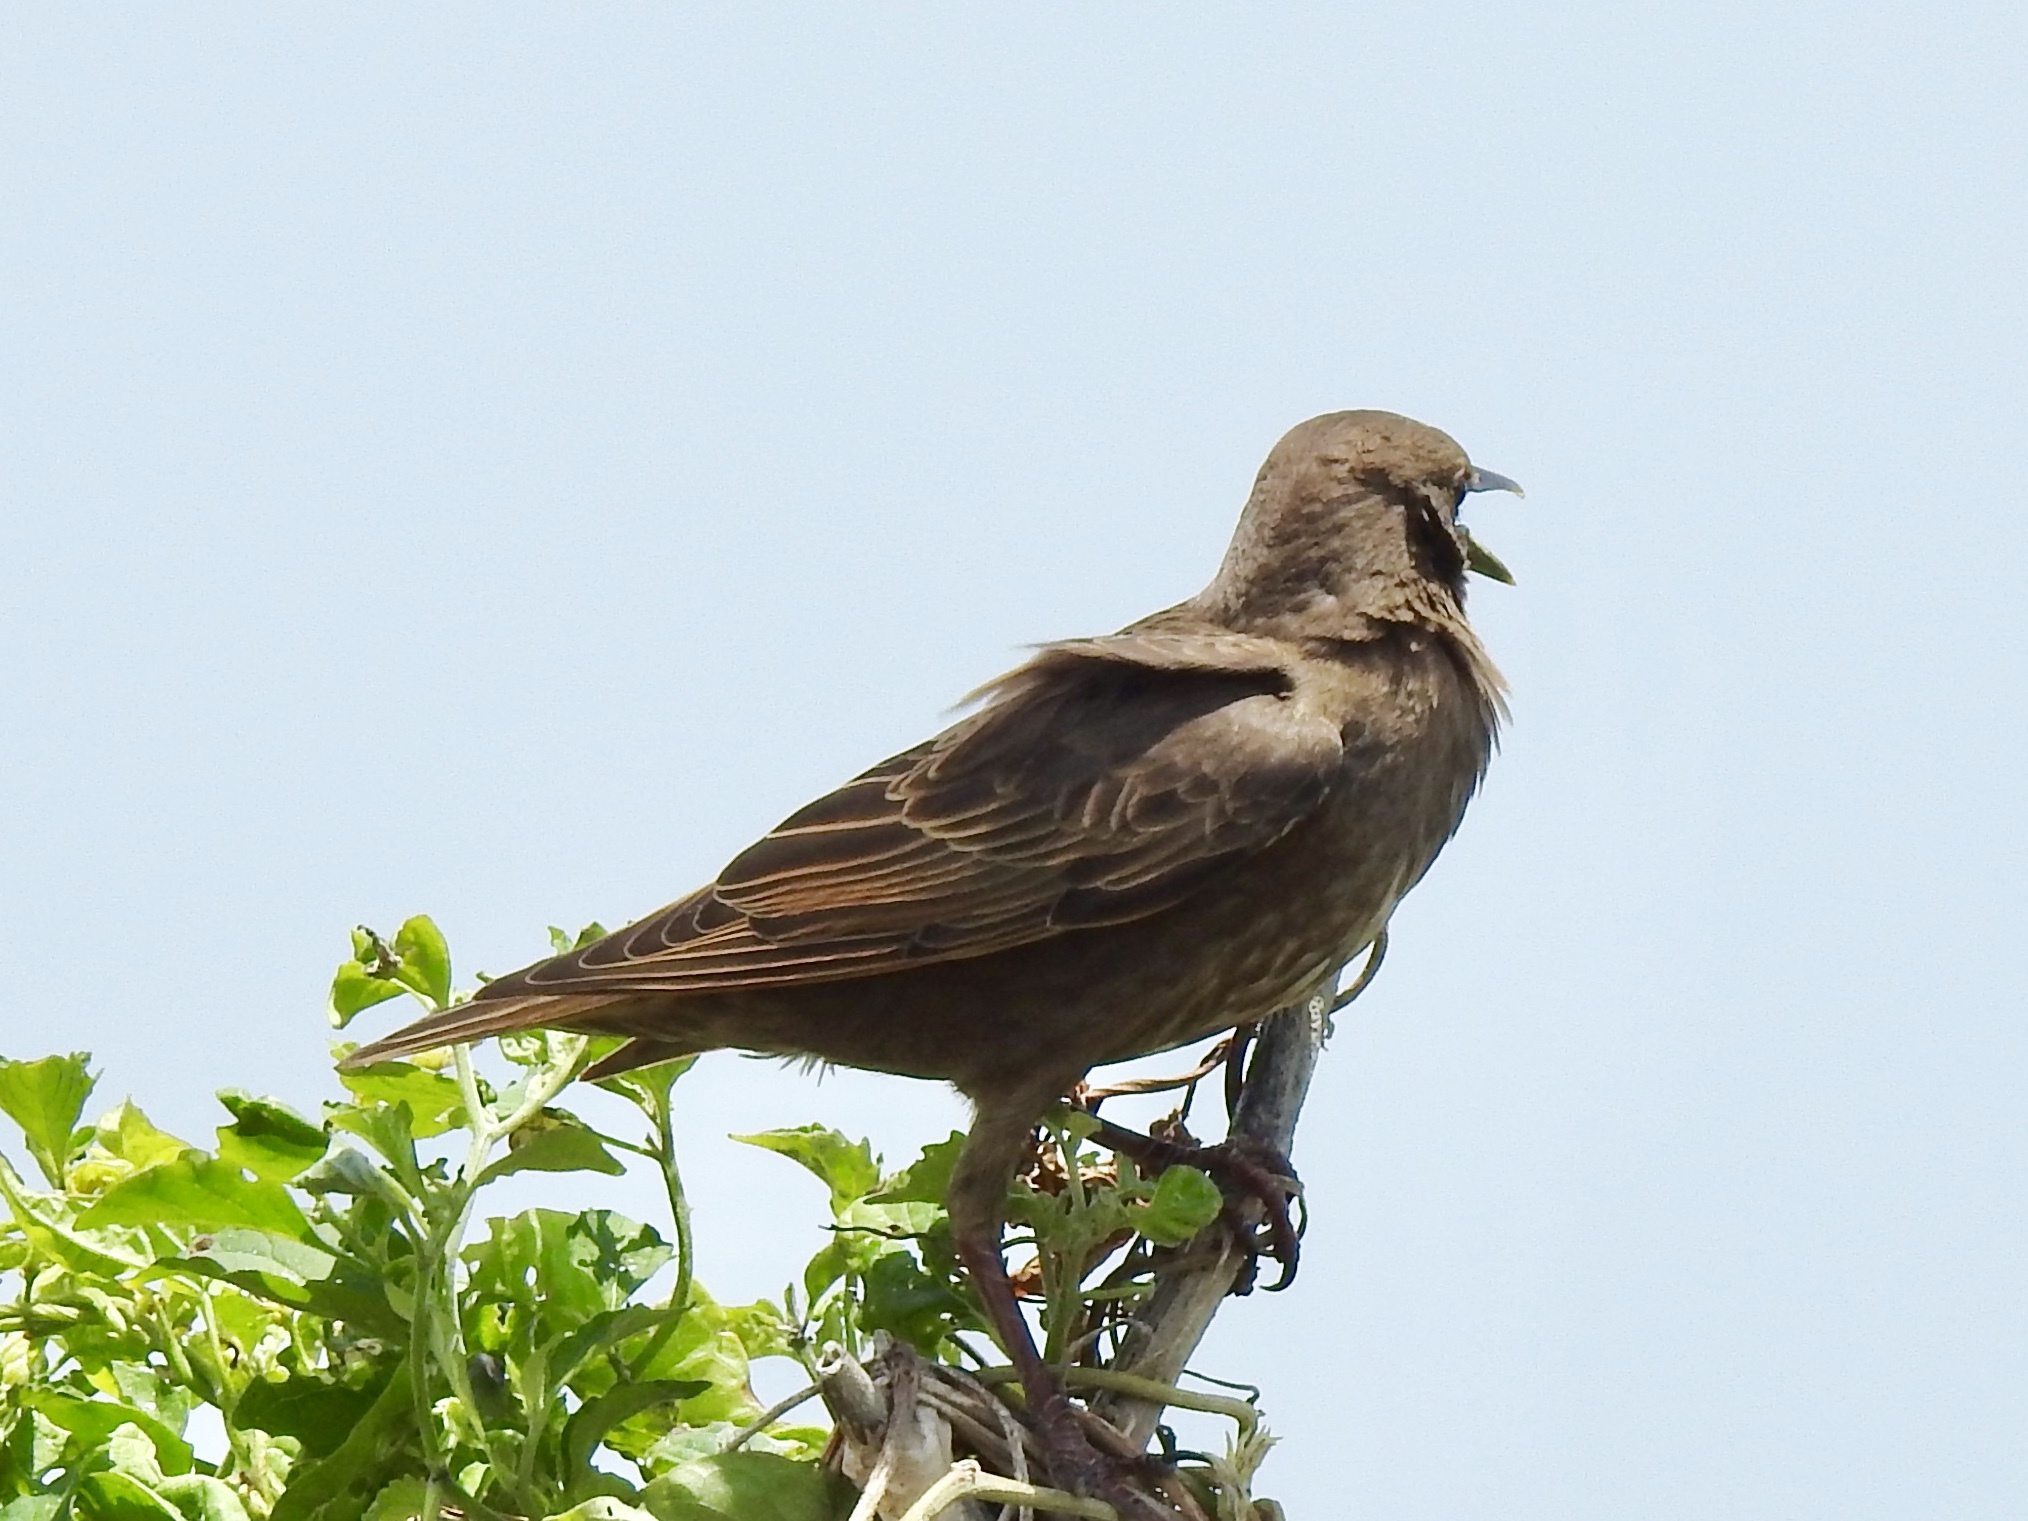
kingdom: Animalia
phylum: Chordata
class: Aves
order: Passeriformes
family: Sturnidae
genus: Sturnus
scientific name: Sturnus vulgaris
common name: Common starling
